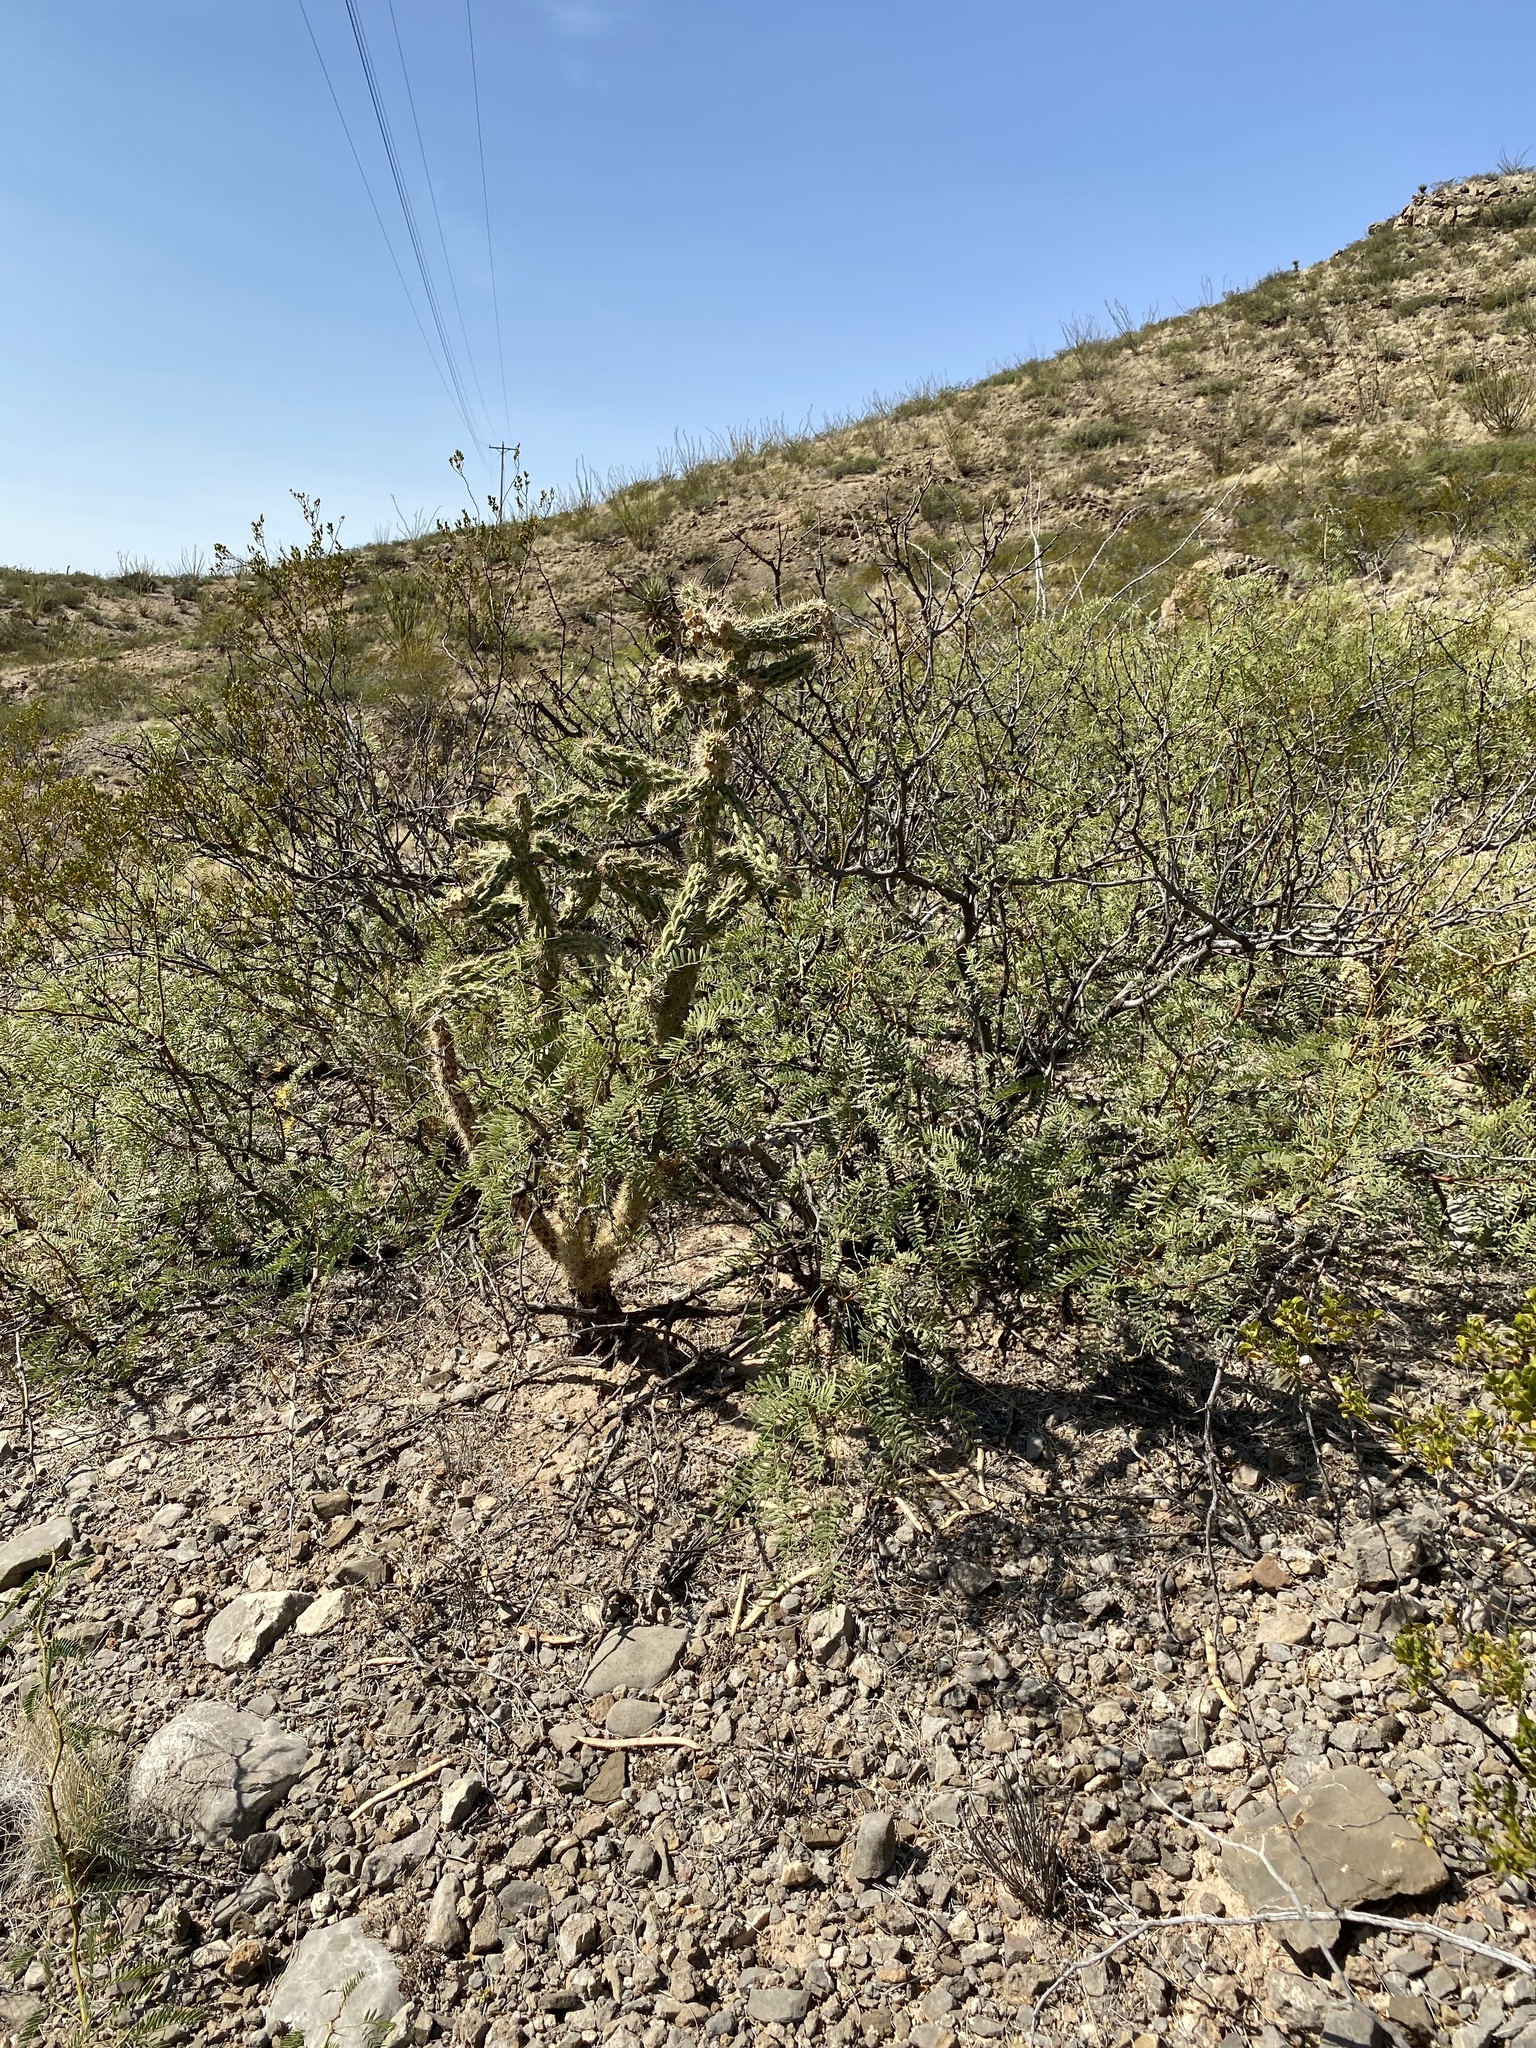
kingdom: Plantae
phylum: Tracheophyta
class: Magnoliopsida
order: Caryophyllales
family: Cactaceae
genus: Cylindropuntia
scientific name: Cylindropuntia imbricata
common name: Candelabrum cactus
